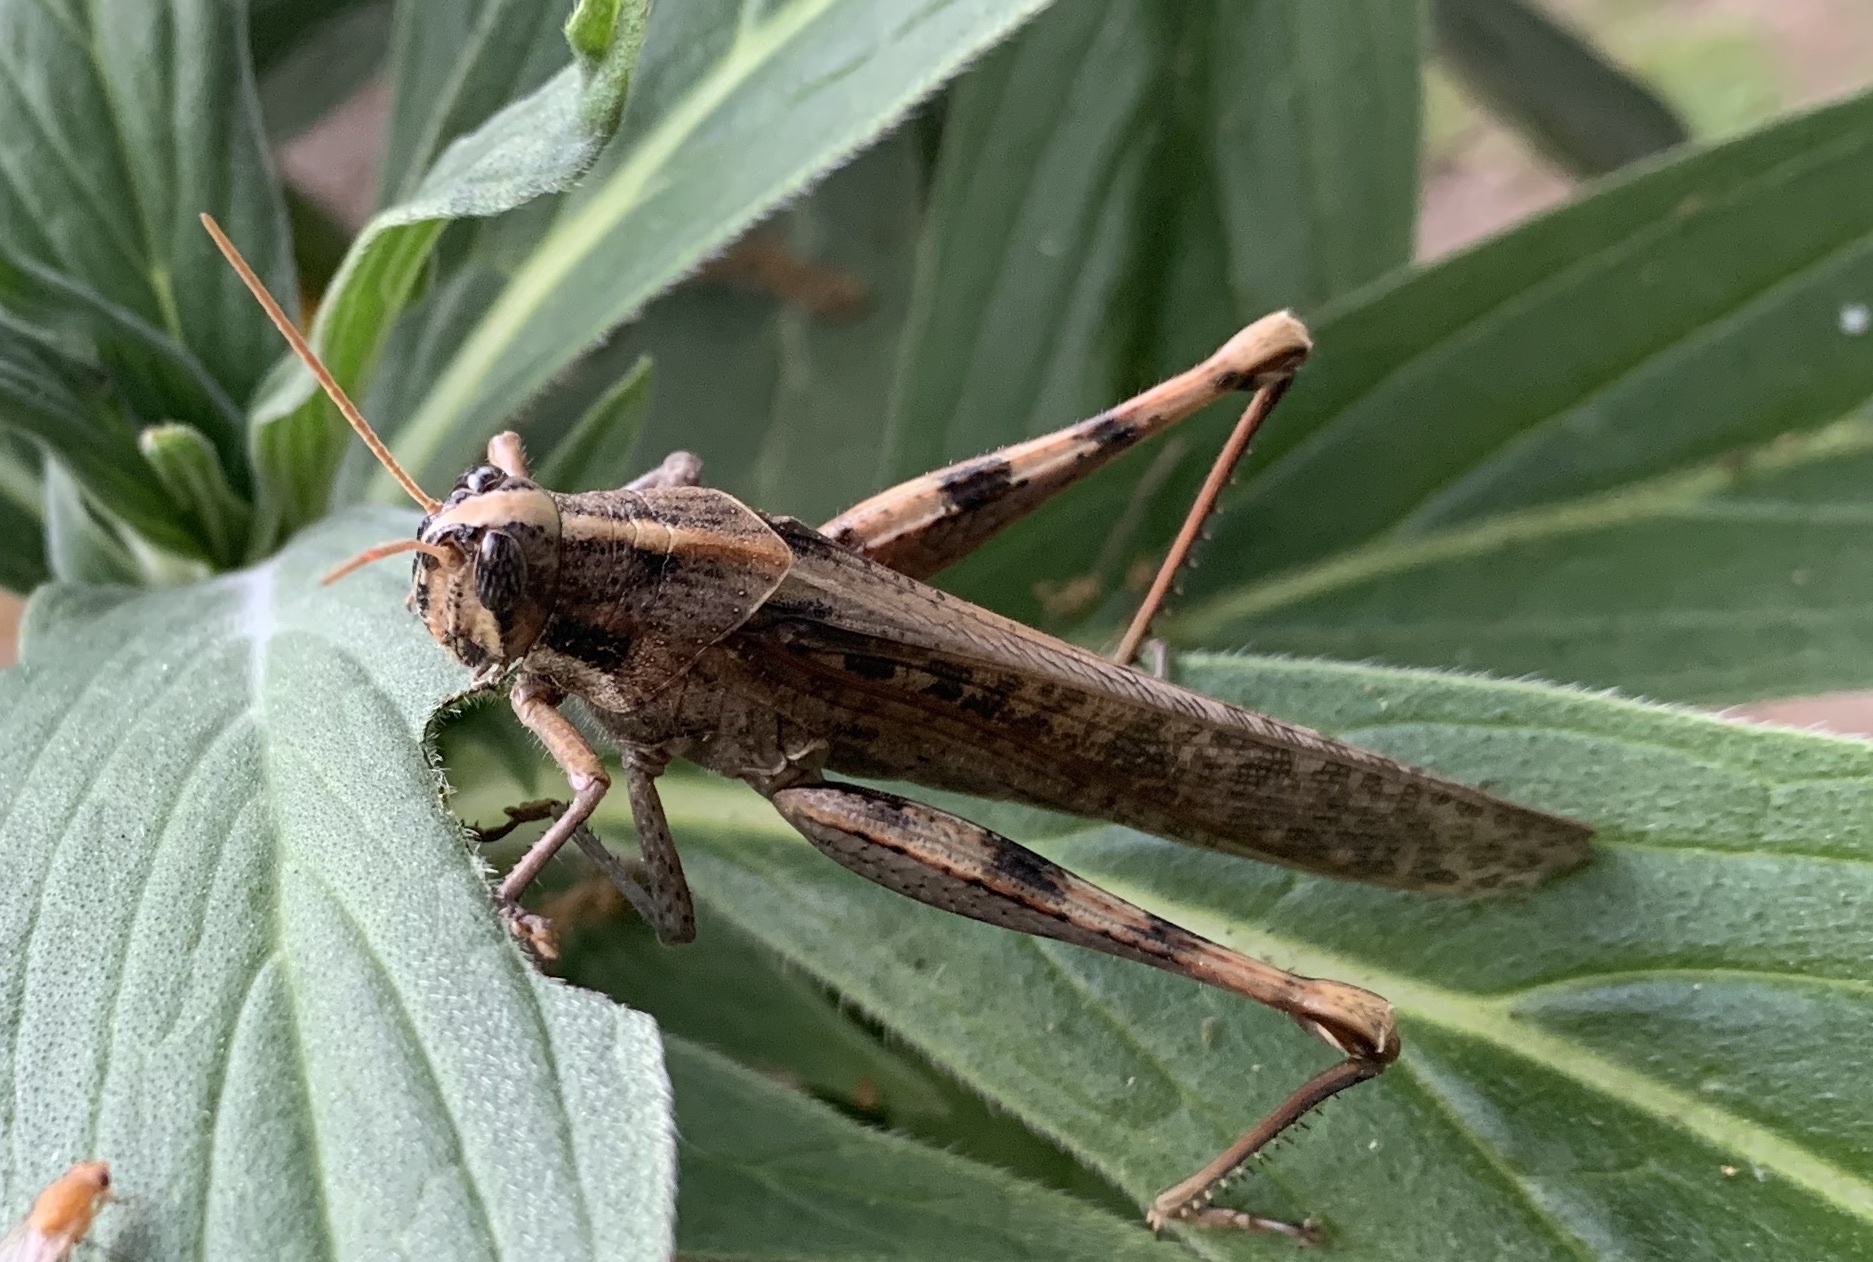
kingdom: Animalia
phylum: Arthropoda
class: Insecta
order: Orthoptera
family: Acrididae
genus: Schistocerca
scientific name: Schistocerca nitens
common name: Vagrant grasshopper
